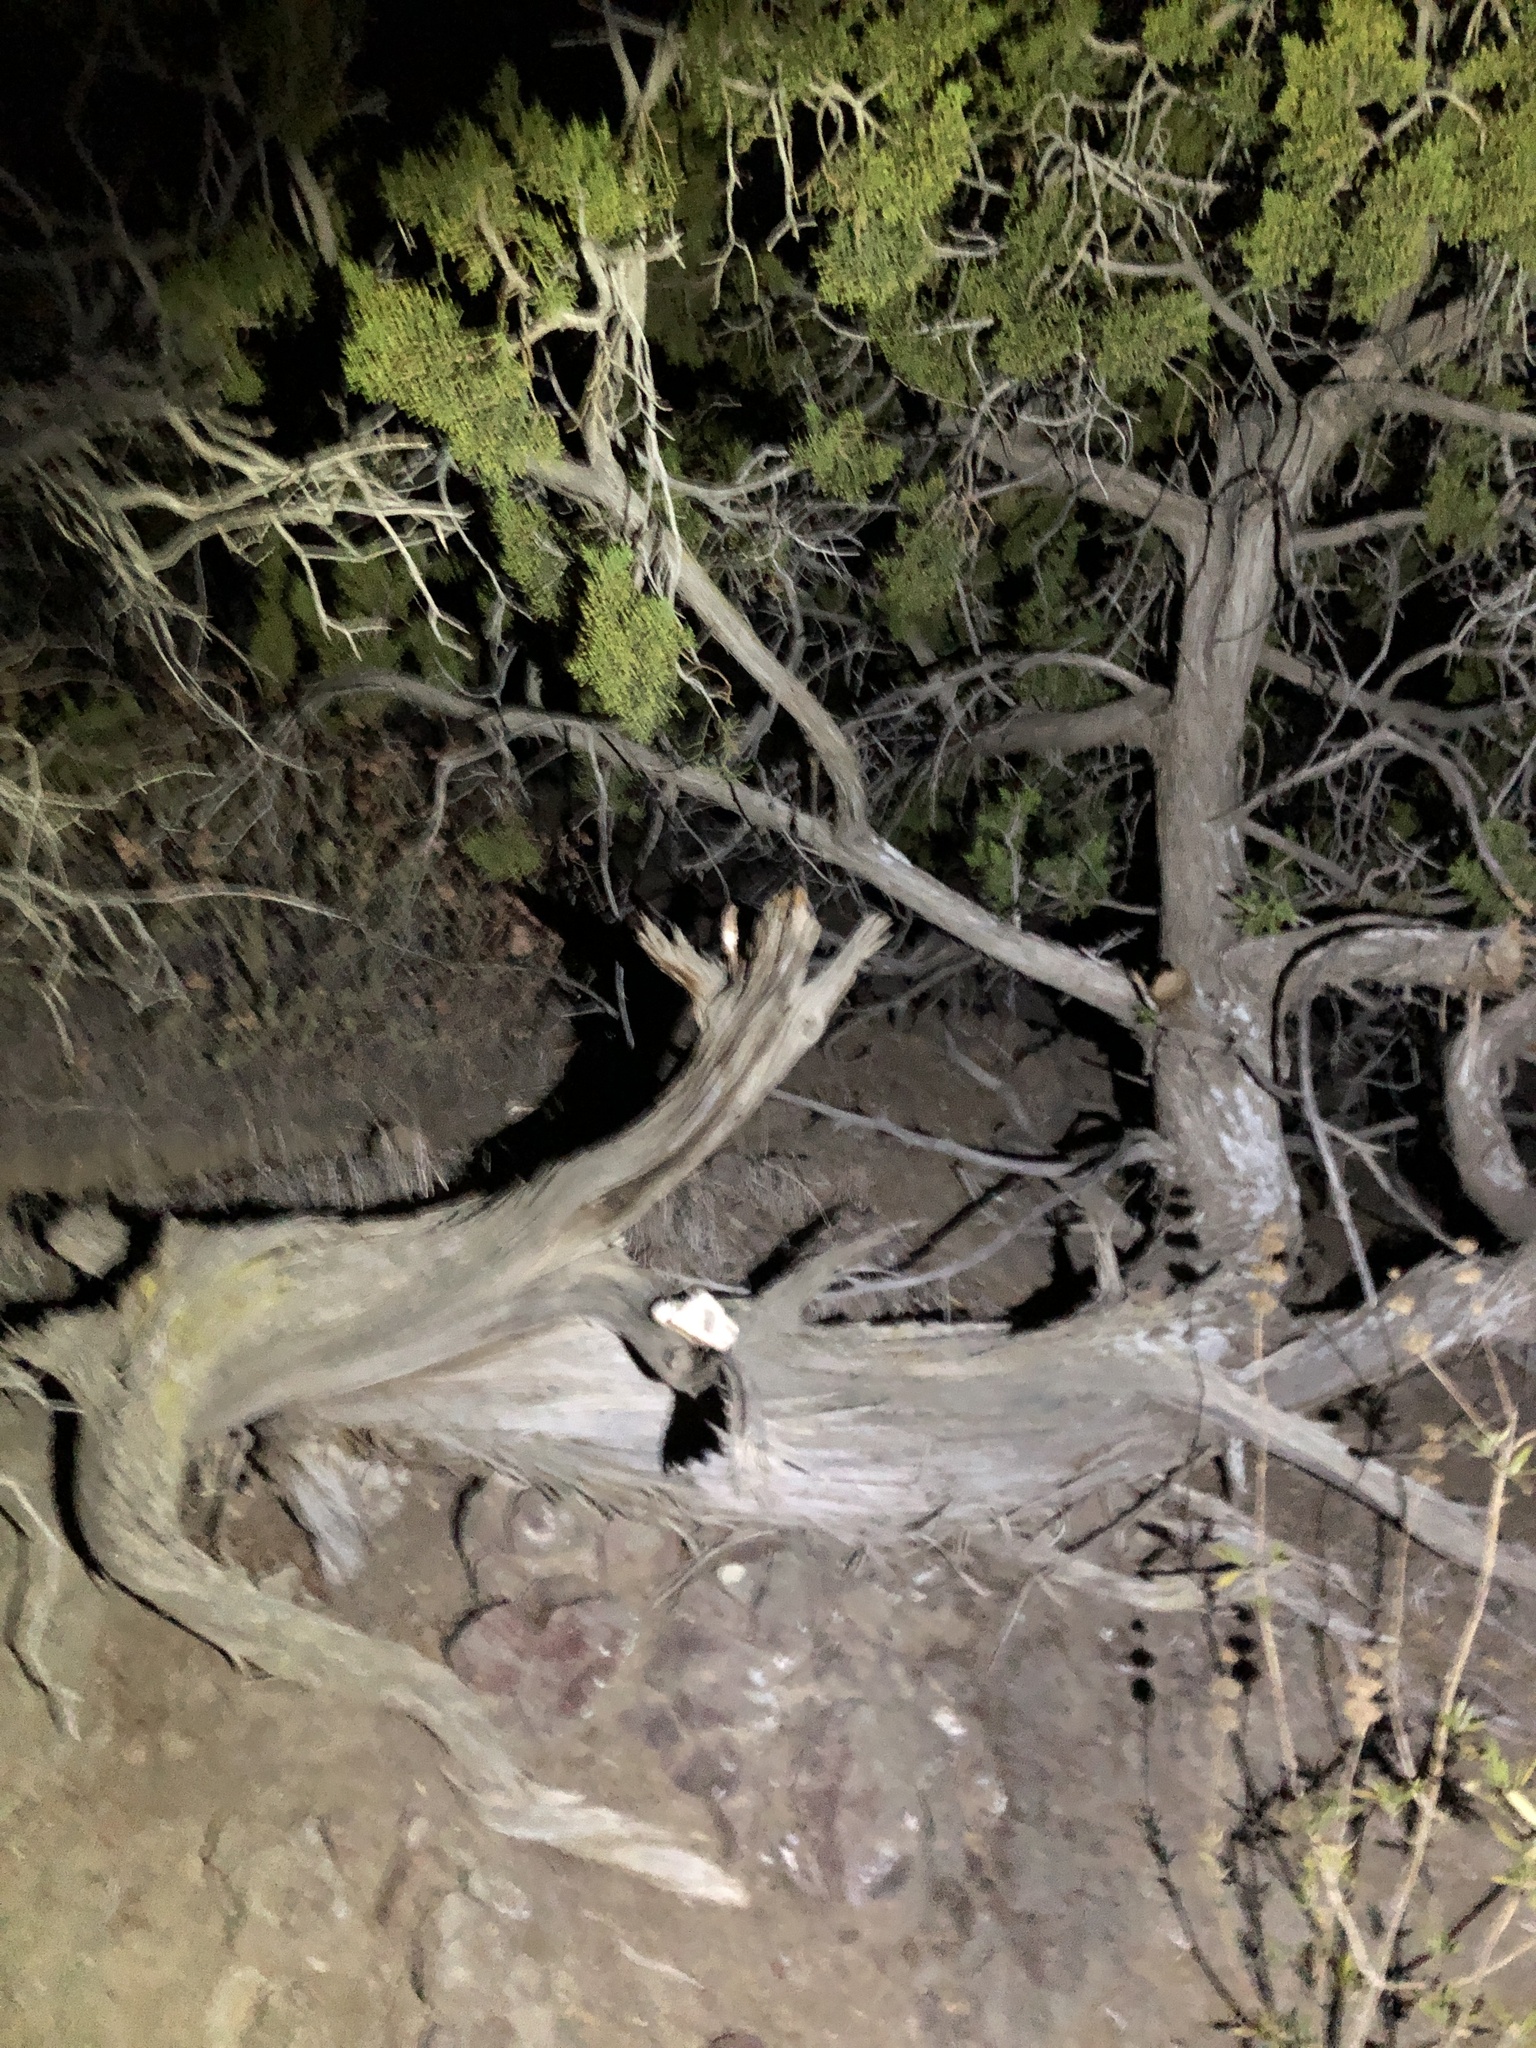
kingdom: Plantae
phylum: Tracheophyta
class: Pinopsida
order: Pinales
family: Cupressaceae
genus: Juniperus
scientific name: Juniperus californica
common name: California juniper
